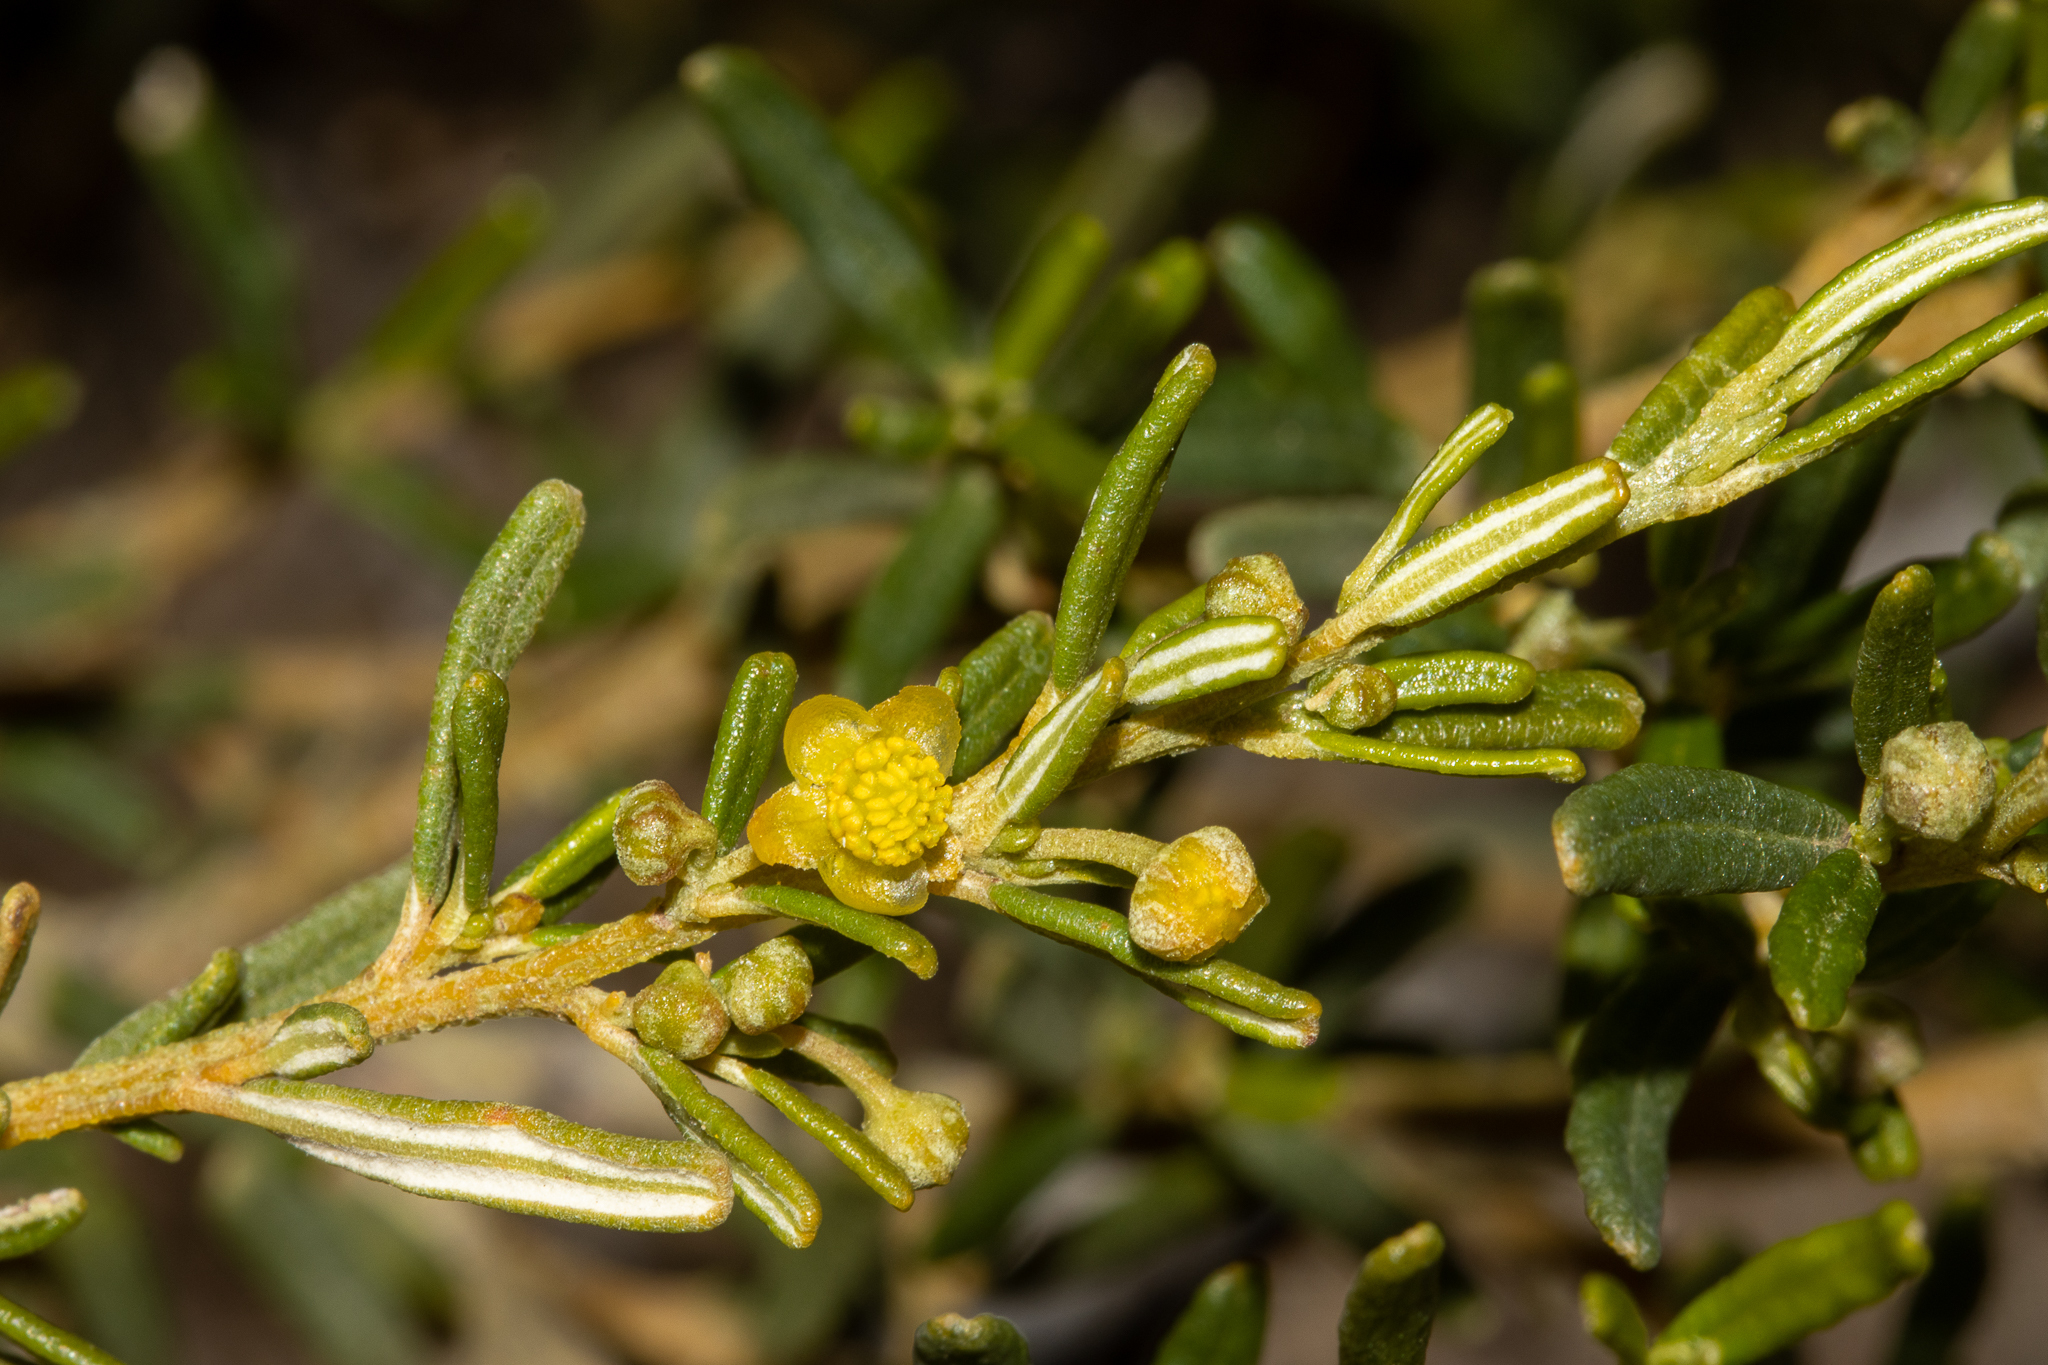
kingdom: Plantae
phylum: Tracheophyta
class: Magnoliopsida
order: Malpighiales
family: Euphorbiaceae
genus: Beyeria
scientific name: Beyeria lechenaultii
